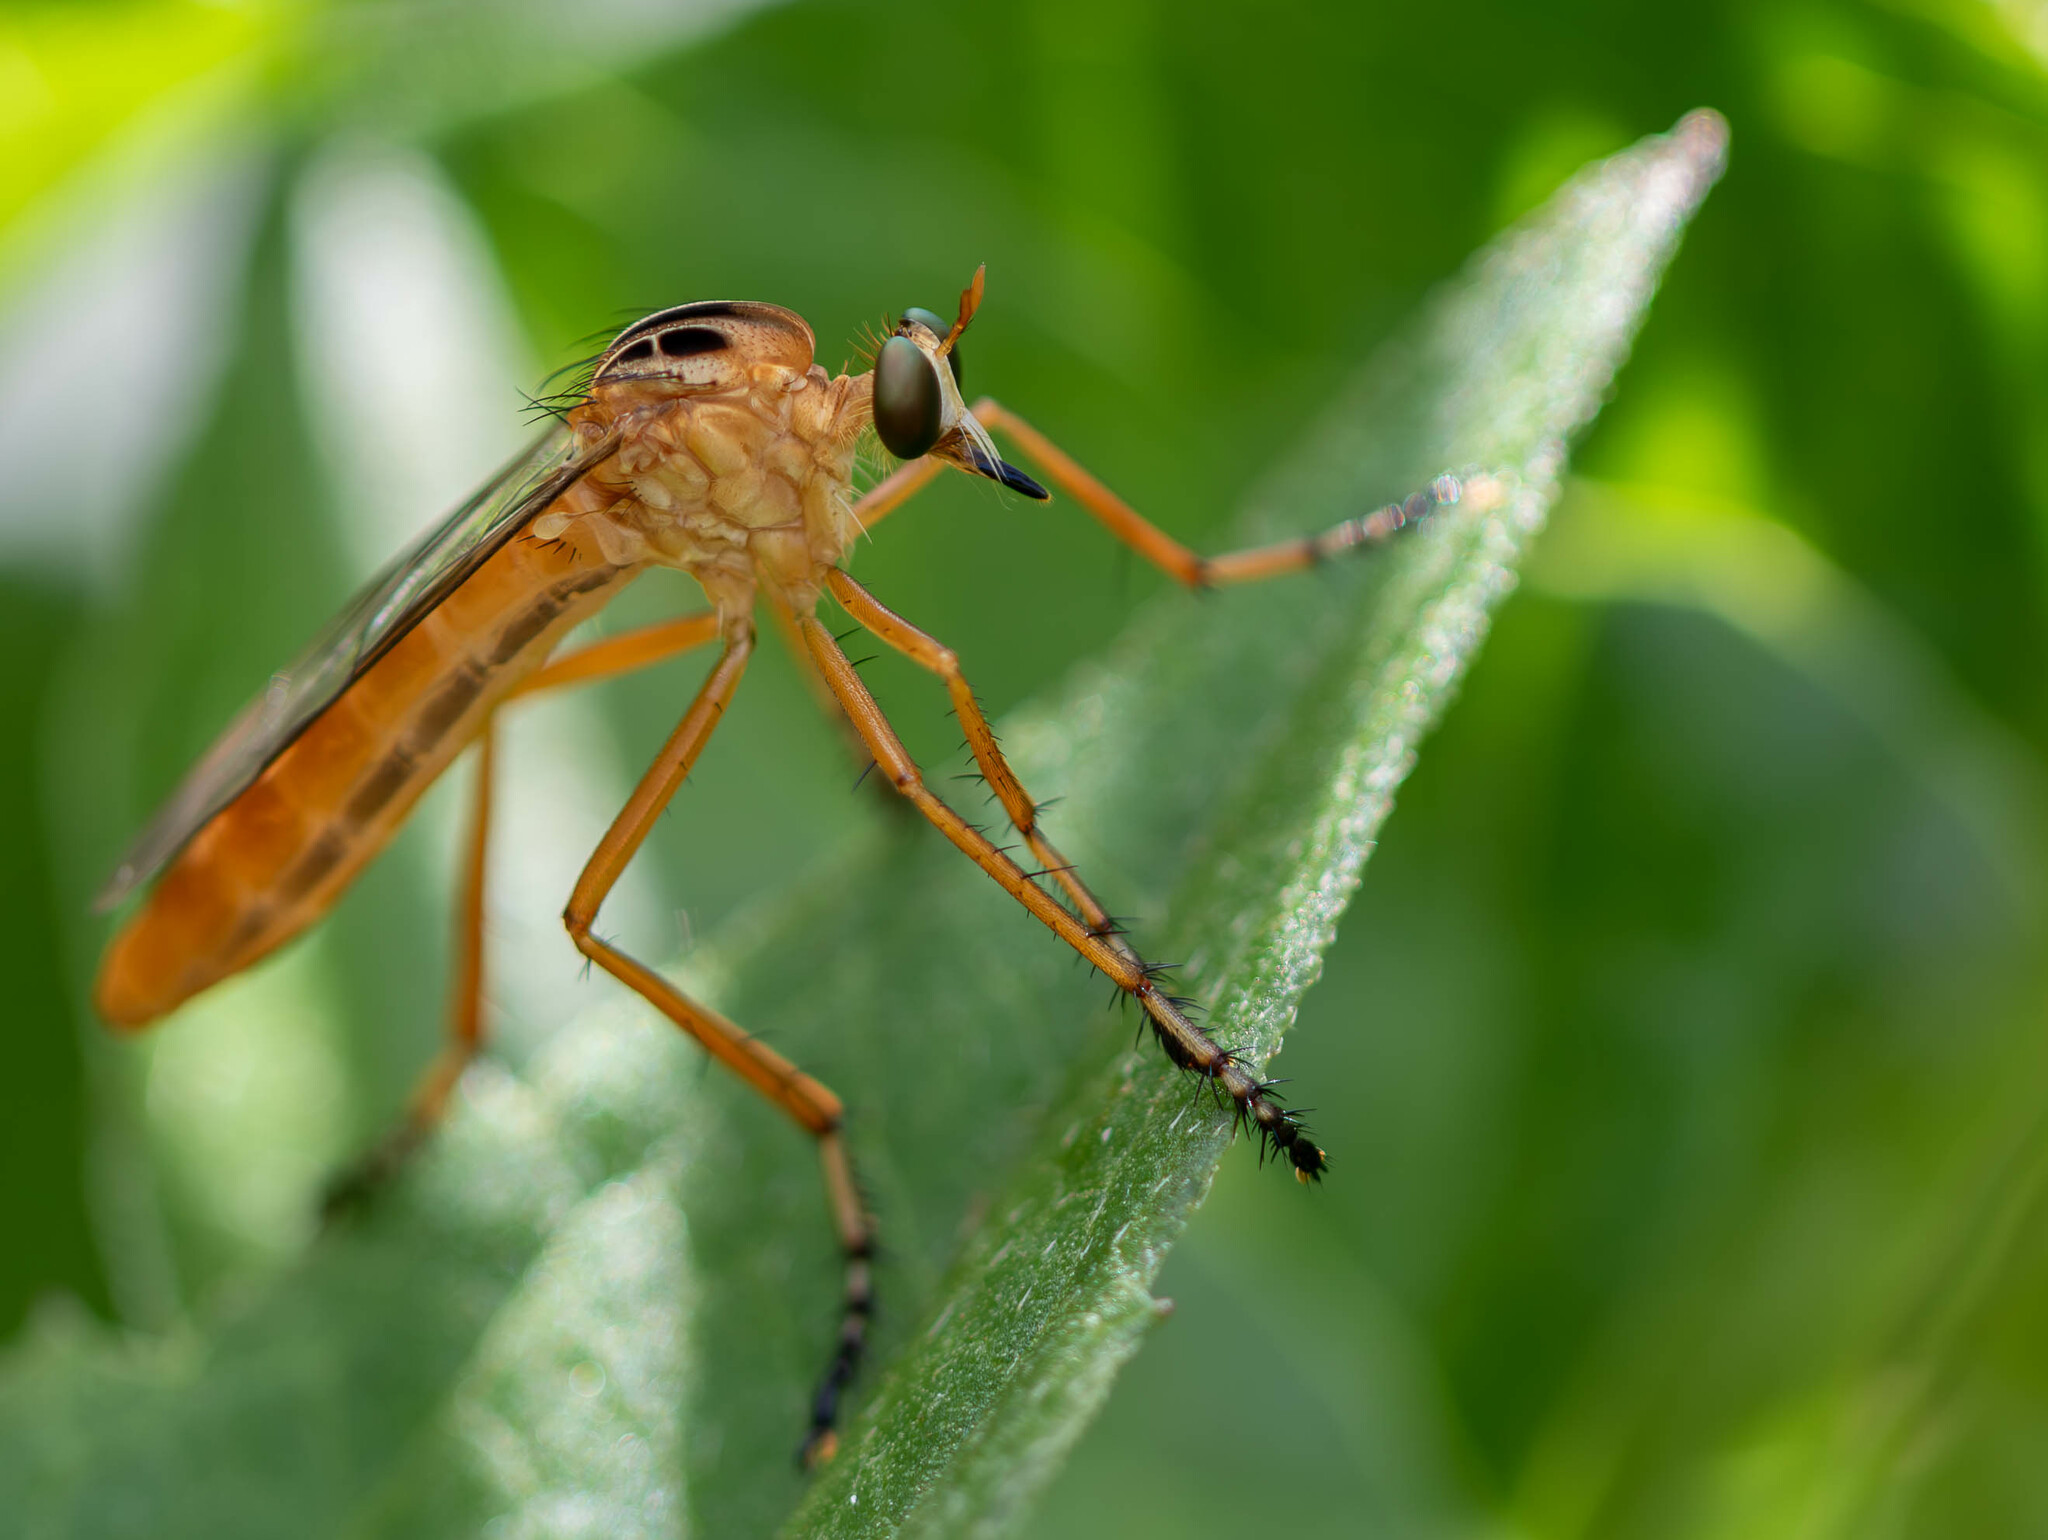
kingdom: Animalia
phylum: Arthropoda
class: Insecta
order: Diptera
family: Asilidae
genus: Diogmites
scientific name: Diogmites neoternatus
